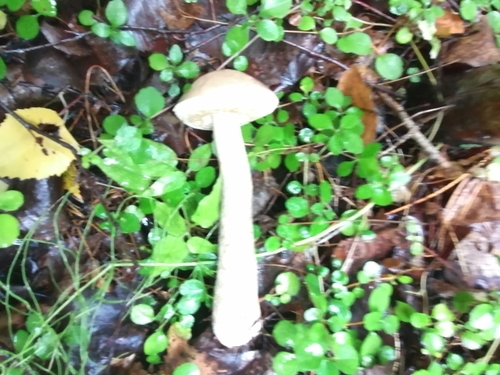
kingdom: Fungi
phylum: Basidiomycota
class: Agaricomycetes
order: Boletales
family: Boletaceae
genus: Leccinum
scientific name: Leccinum
